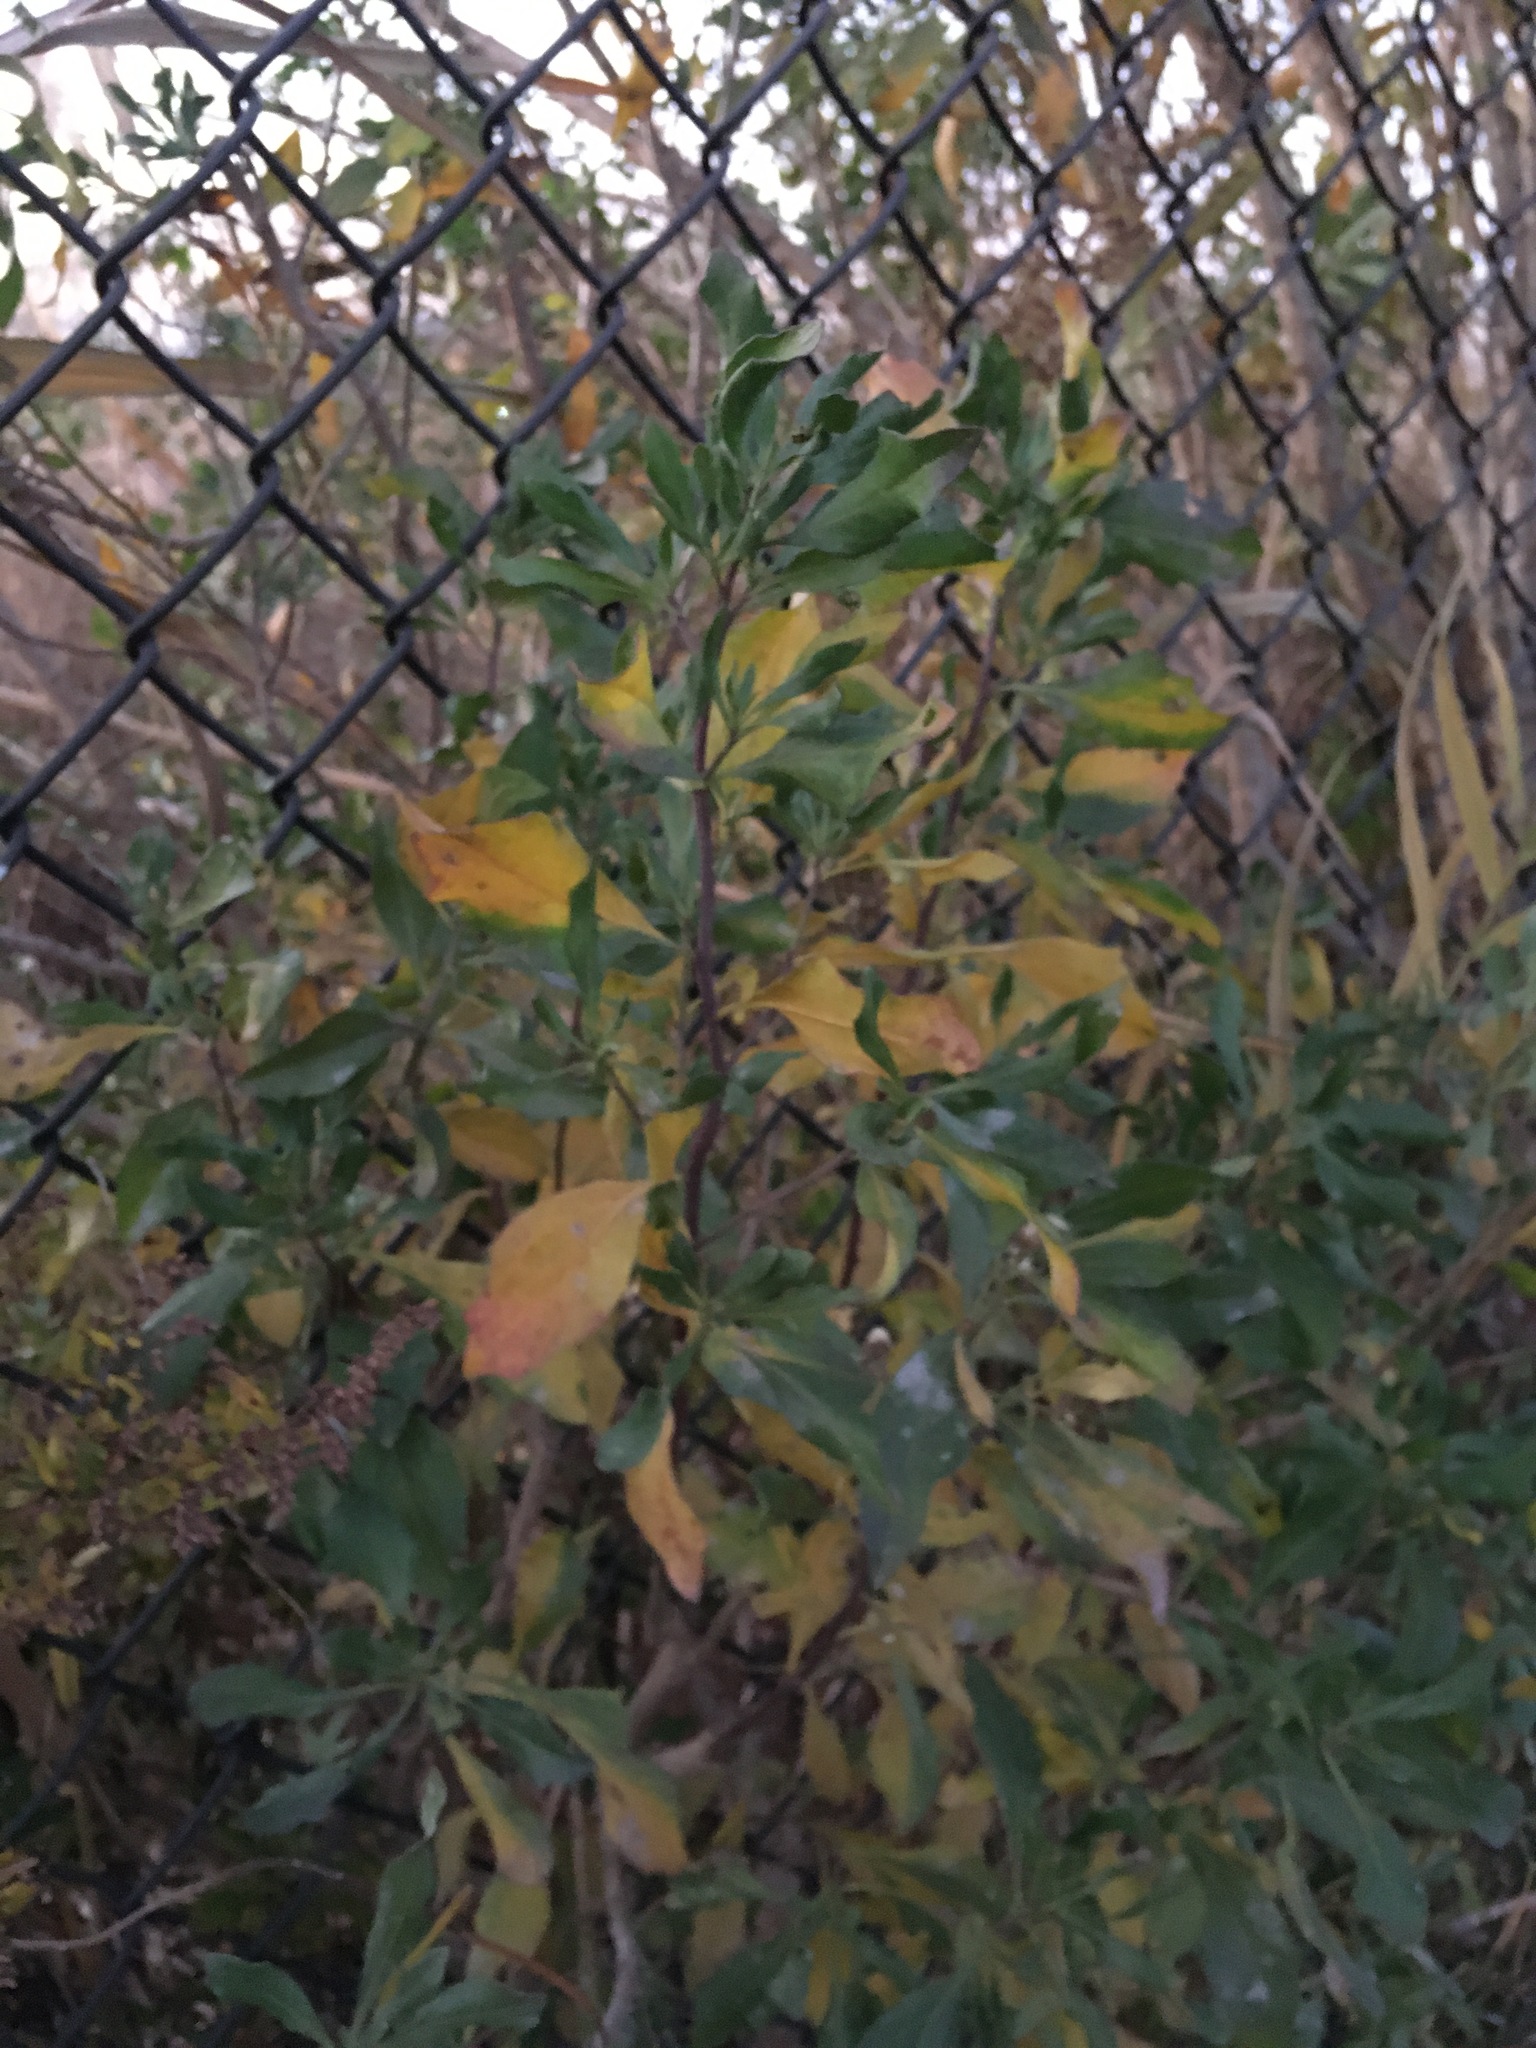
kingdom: Plantae
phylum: Tracheophyta
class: Magnoliopsida
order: Asterales
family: Asteraceae
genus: Baccharis
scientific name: Baccharis halimifolia
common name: Eastern baccharis
